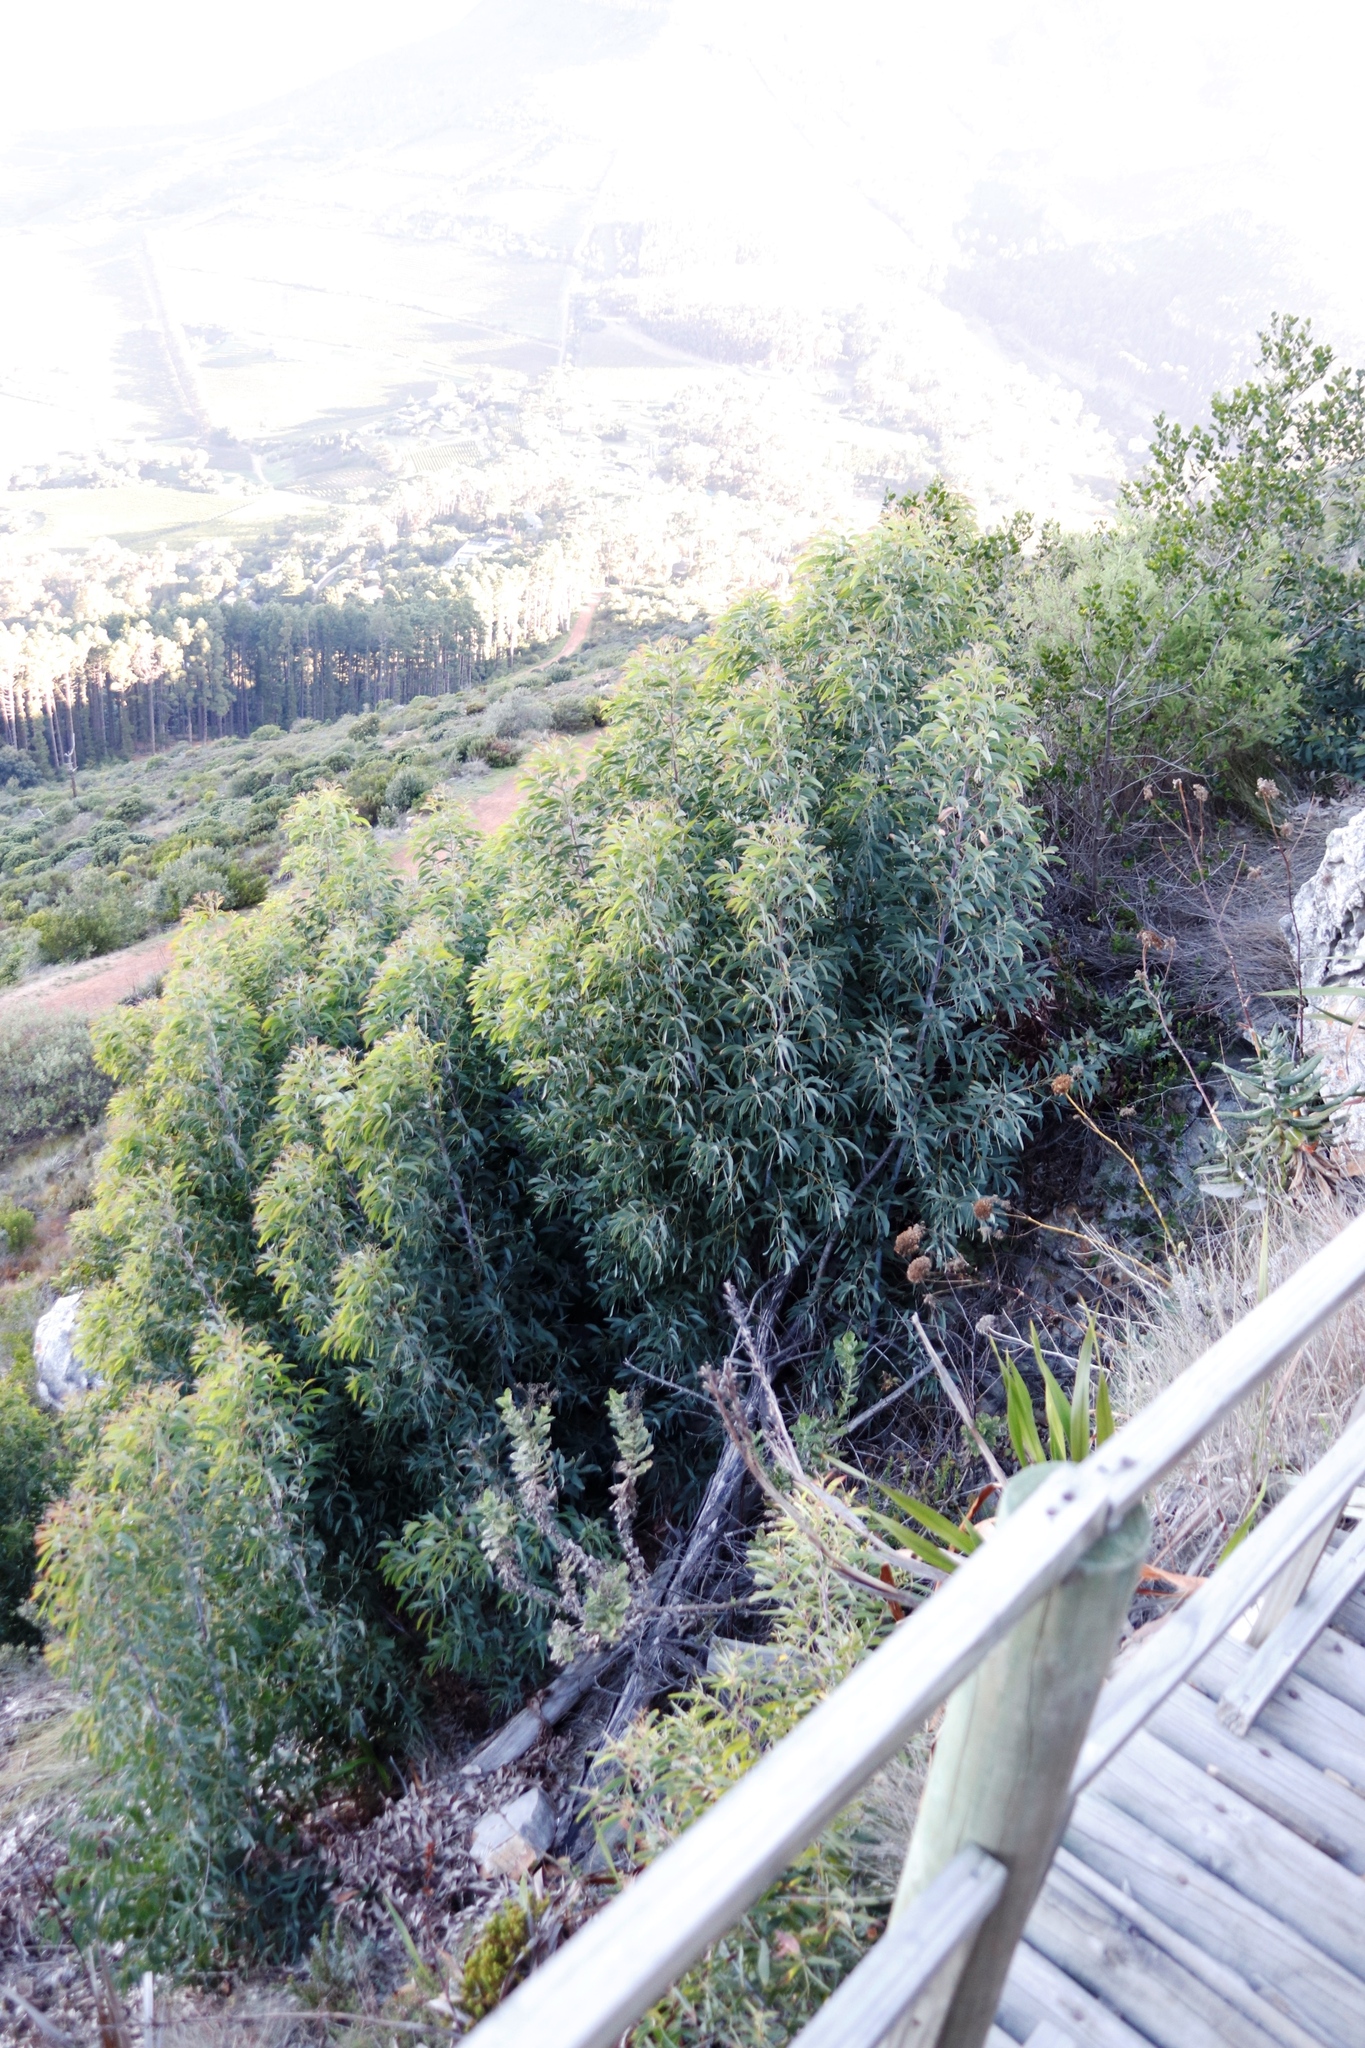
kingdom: Plantae
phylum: Tracheophyta
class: Magnoliopsida
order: Fabales
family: Fabaceae
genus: Acacia
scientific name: Acacia falciformis
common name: Tanning wattle
